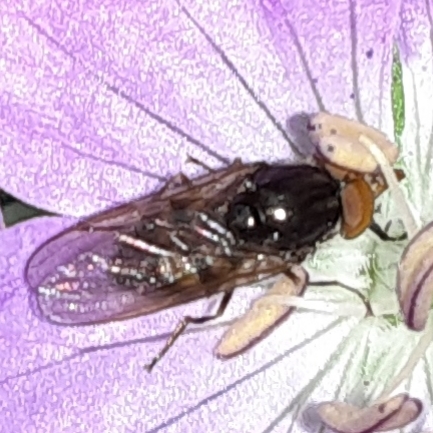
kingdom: Animalia
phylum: Arthropoda
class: Insecta
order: Diptera
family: Syrphidae
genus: Rhingia
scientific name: Rhingia nasica
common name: American snout fly
